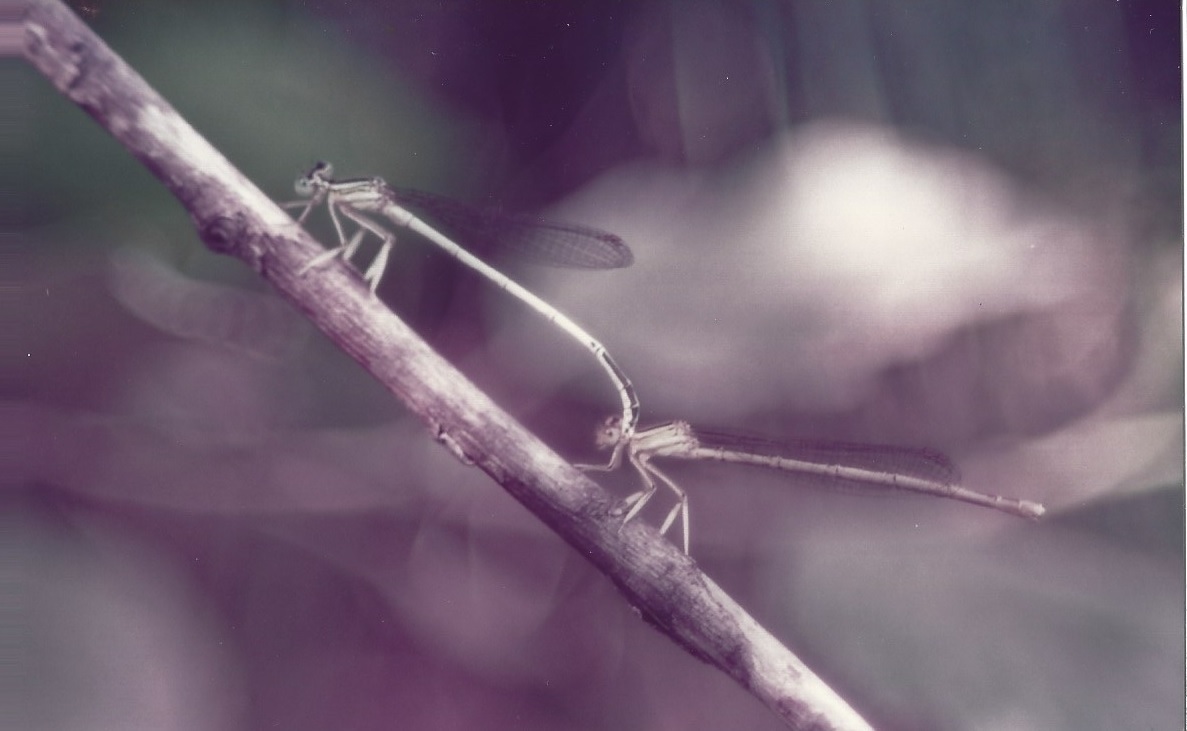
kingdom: Animalia
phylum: Arthropoda
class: Insecta
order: Odonata
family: Platycnemididae
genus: Platycnemis
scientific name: Platycnemis latipes
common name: White featherleg
